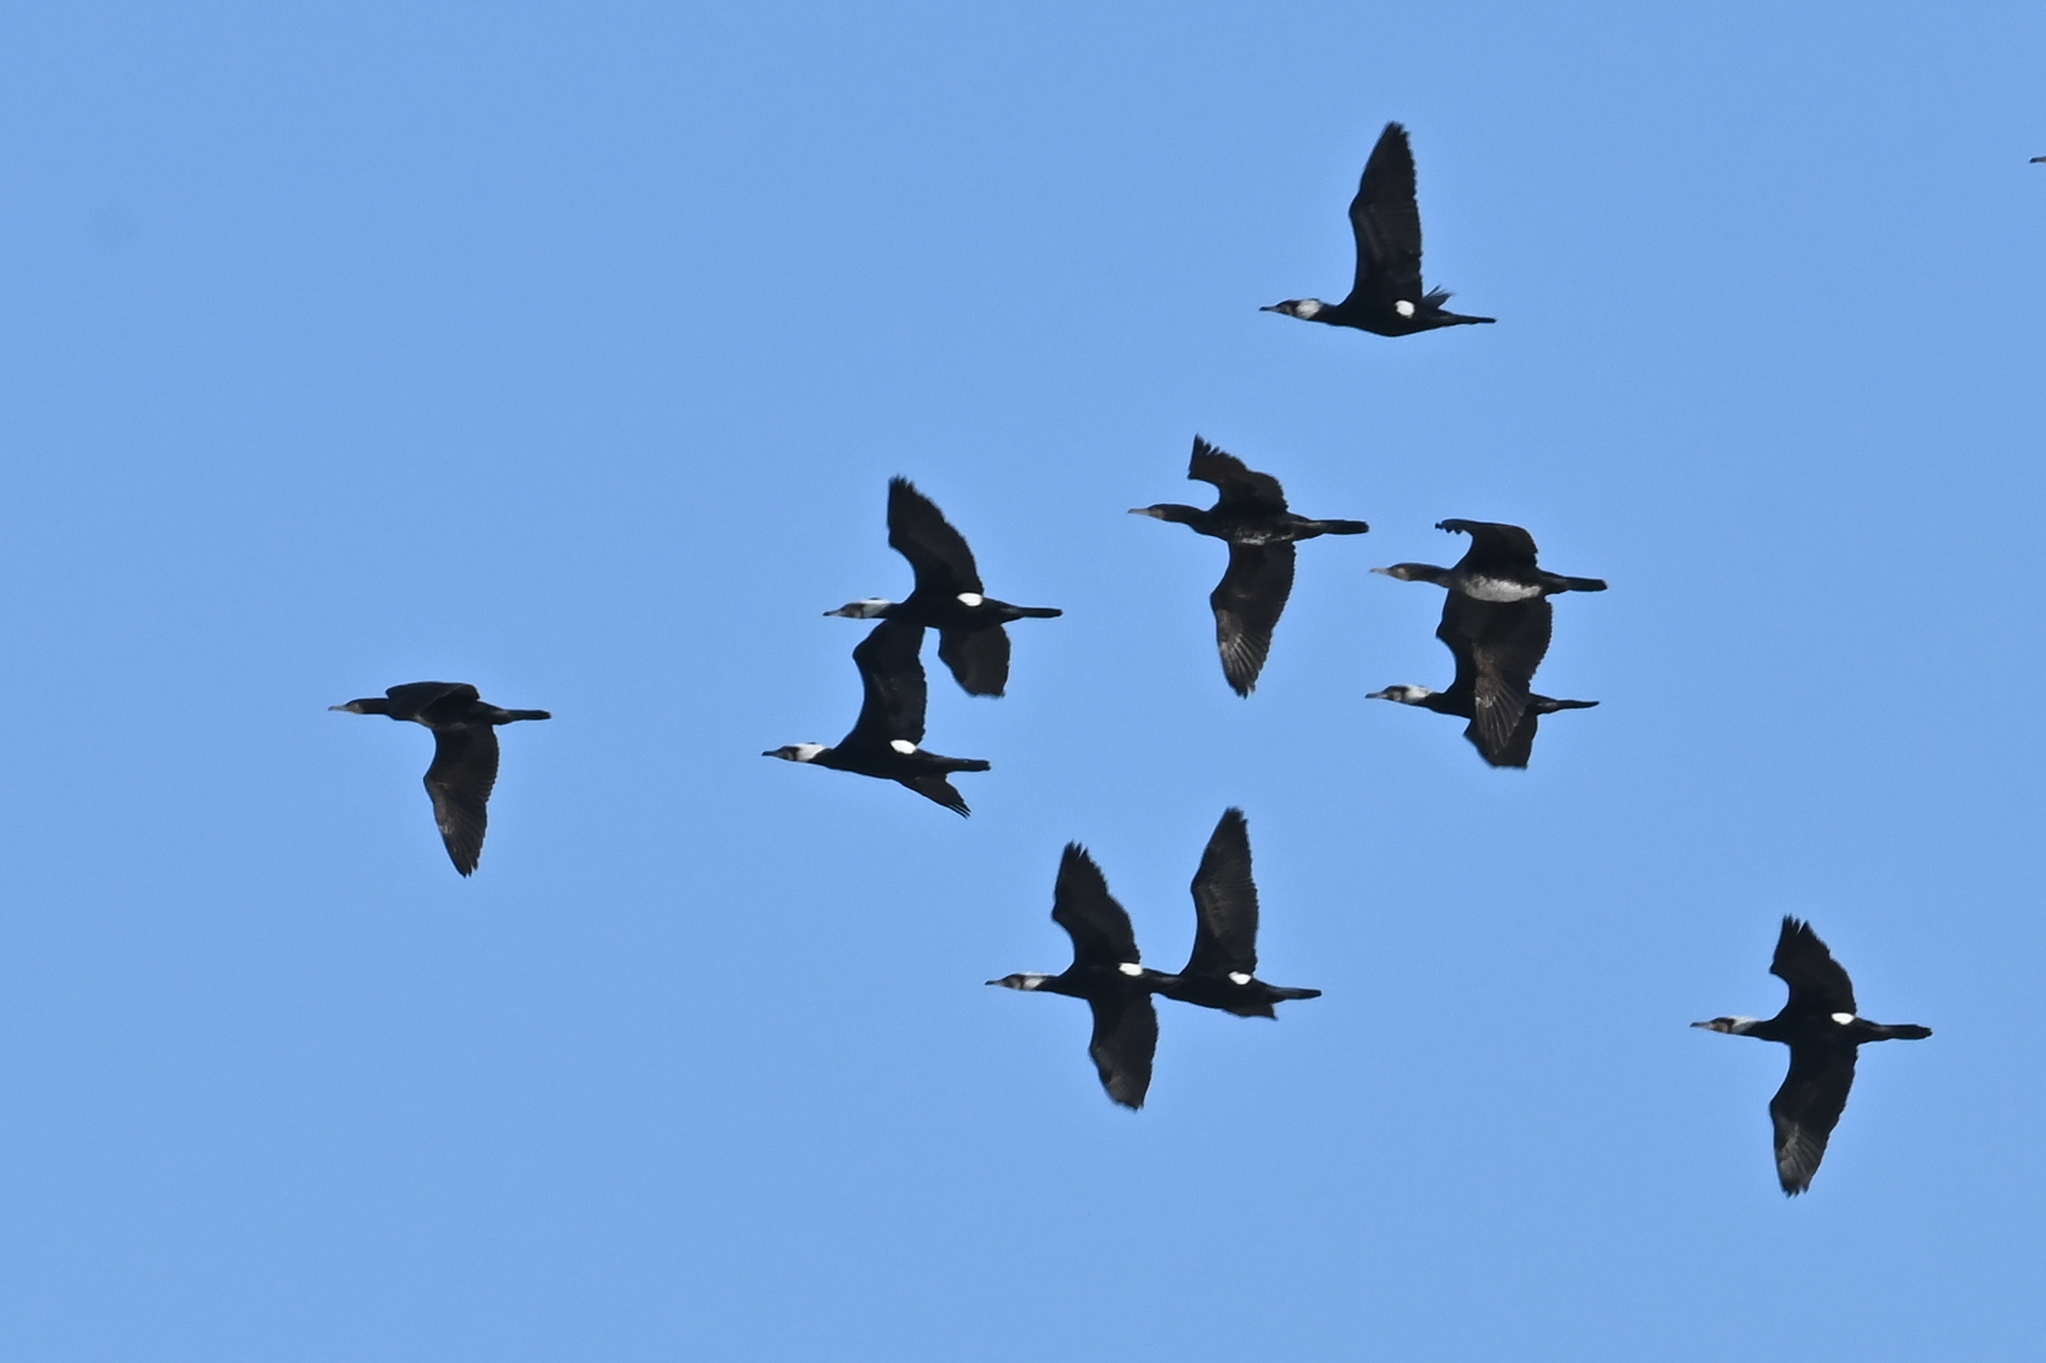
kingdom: Animalia
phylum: Chordata
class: Aves
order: Suliformes
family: Phalacrocoracidae
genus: Phalacrocorax
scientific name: Phalacrocorax carbo
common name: Great cormorant
